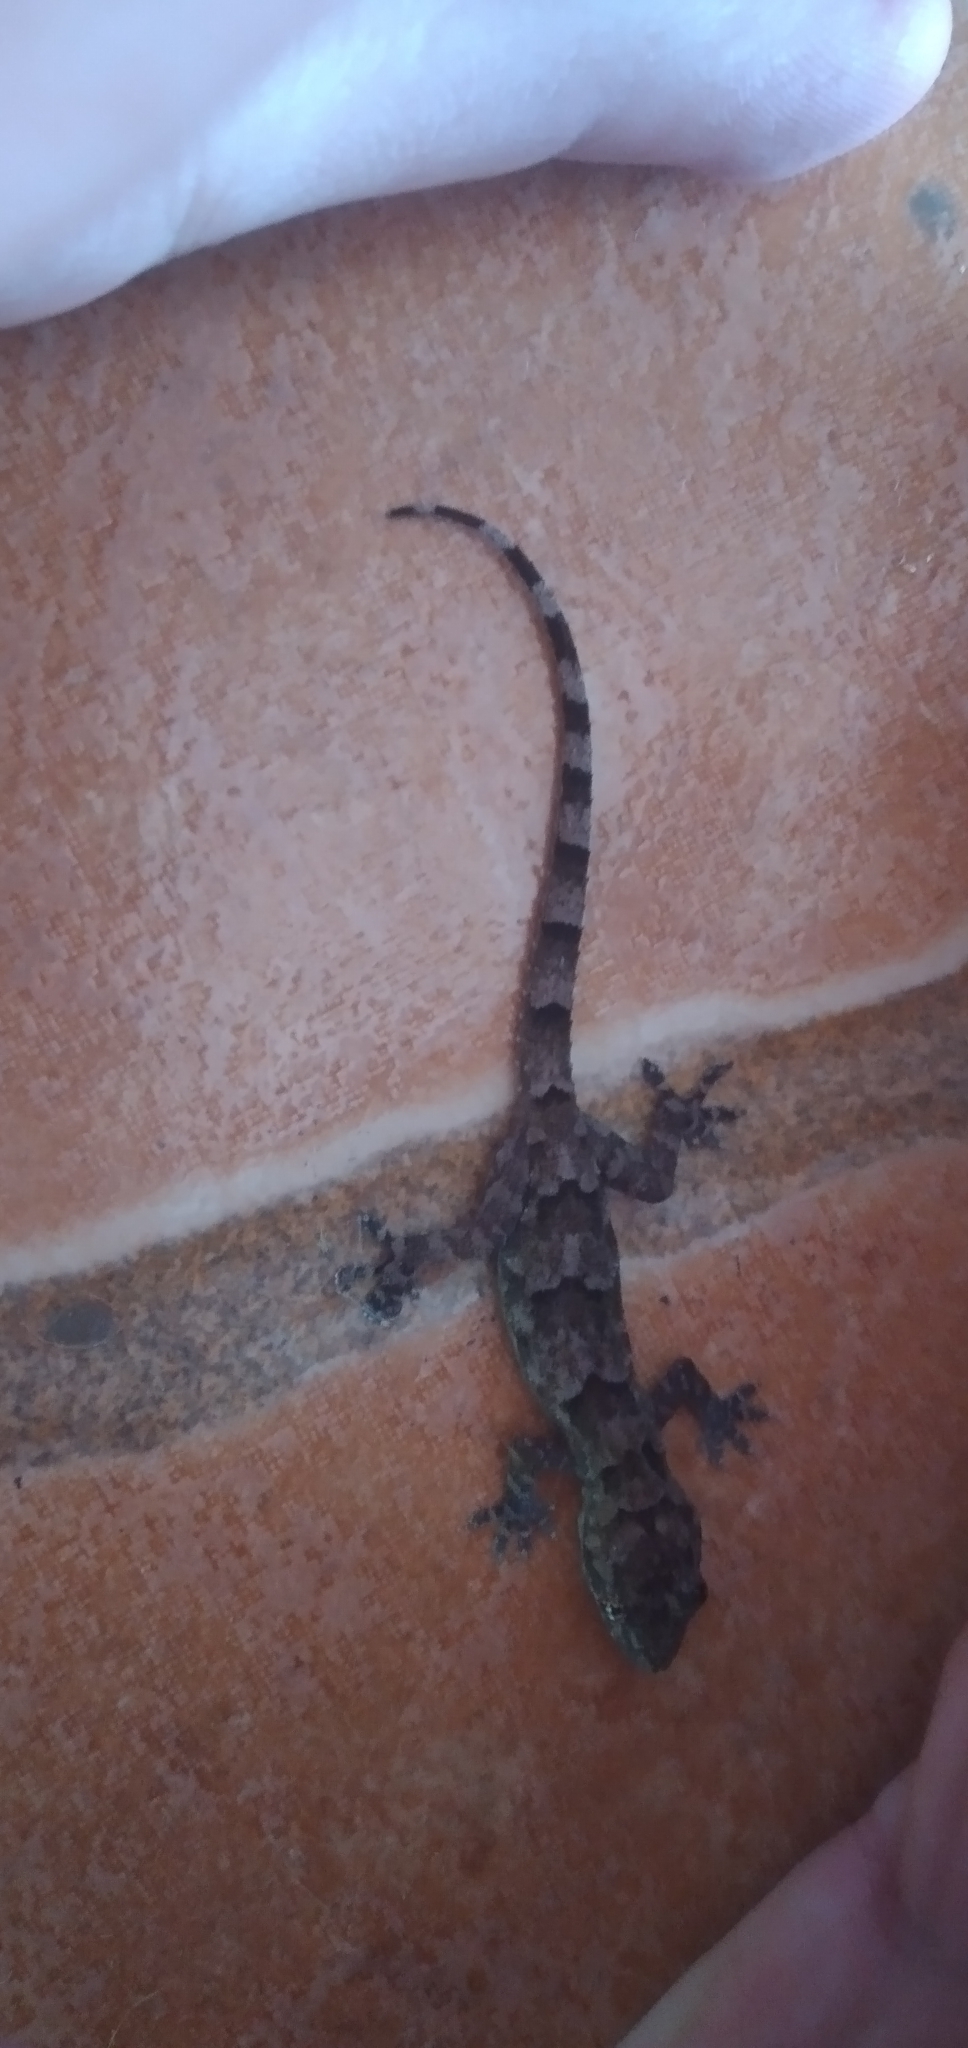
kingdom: Animalia
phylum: Chordata
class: Squamata
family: Gekkonidae
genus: Hemidactylus
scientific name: Hemidactylus mabouia
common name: House gecko
